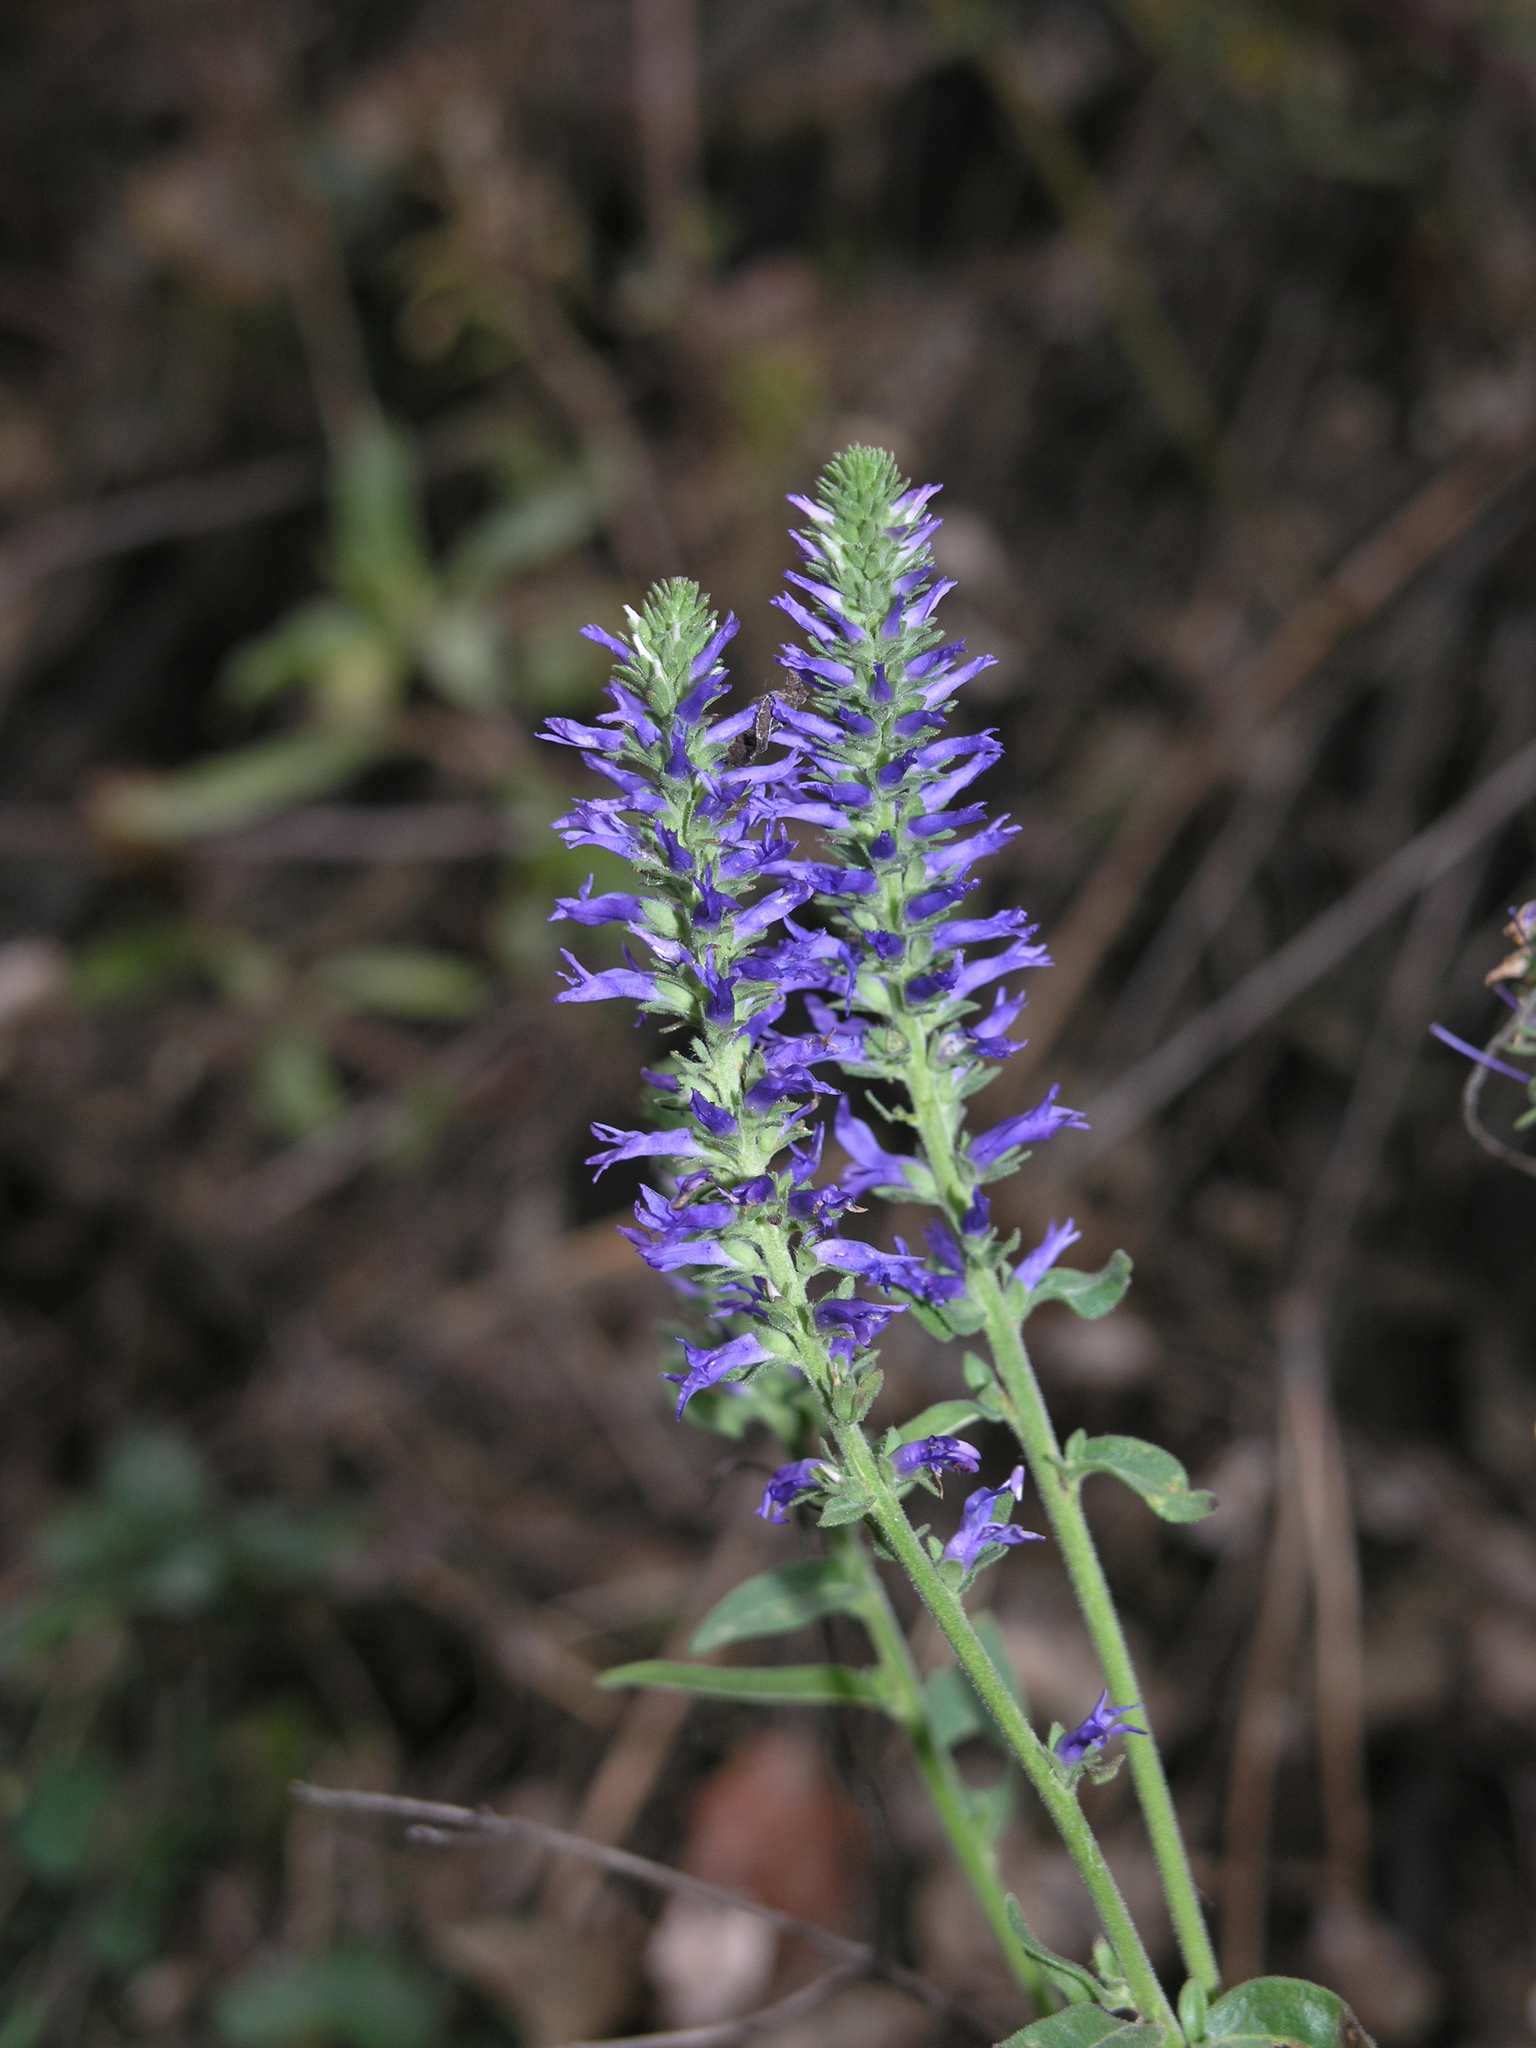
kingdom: Plantae
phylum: Tracheophyta
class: Magnoliopsida
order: Lamiales
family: Plantaginaceae
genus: Veronica
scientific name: Veronica spicata
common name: Spiked speedwell
